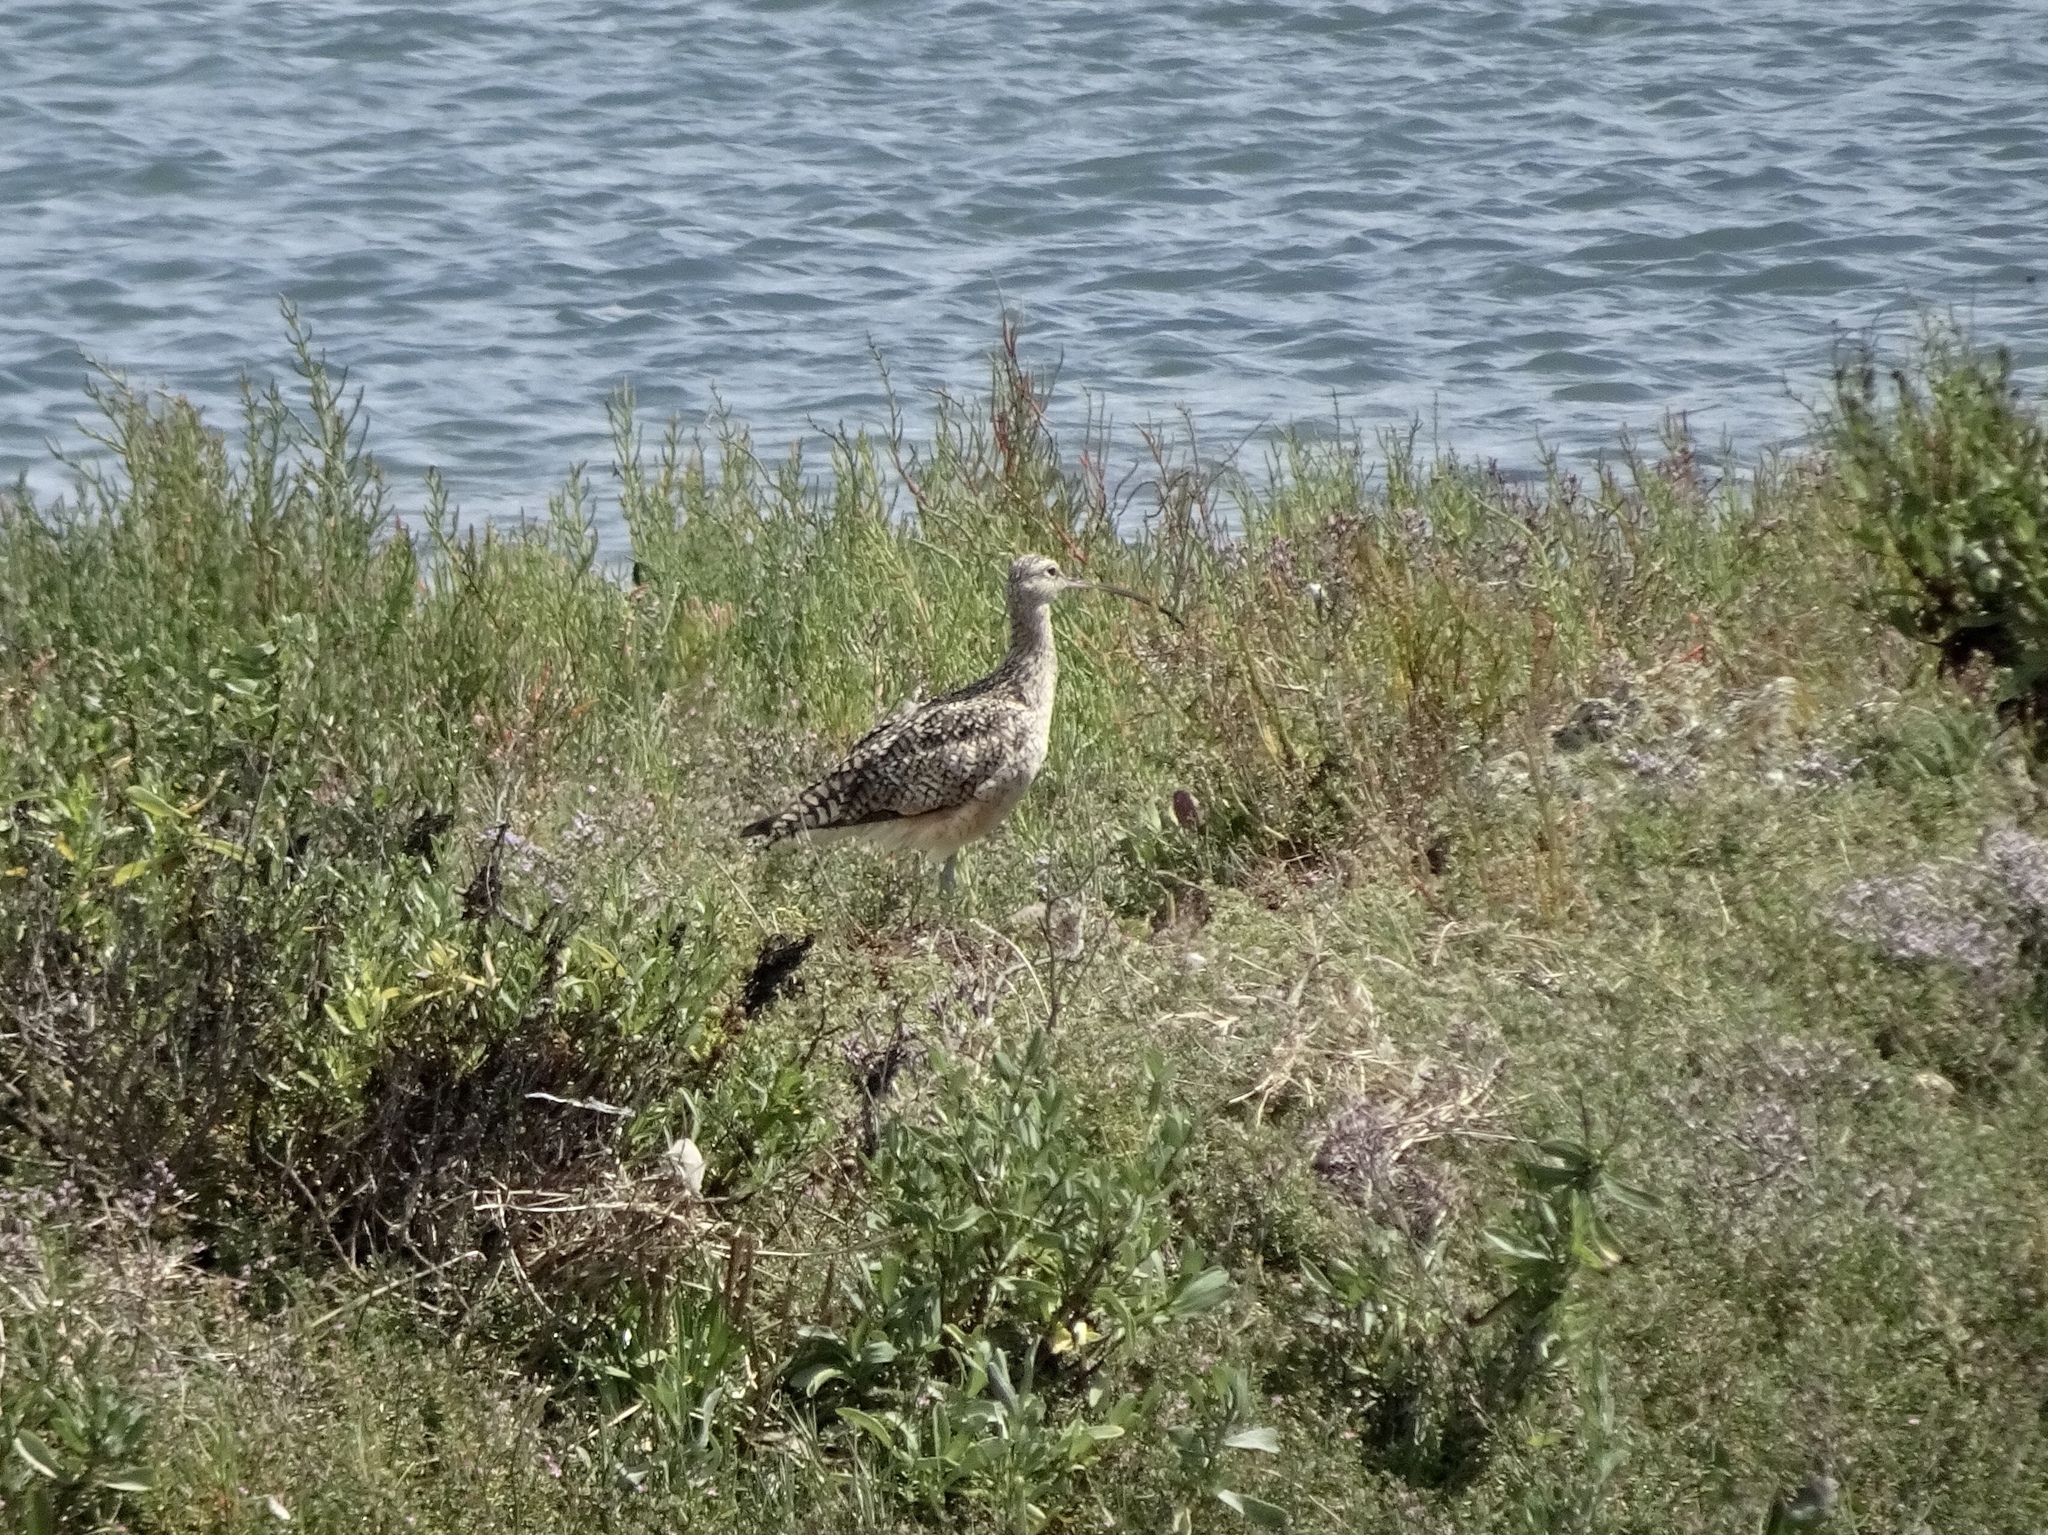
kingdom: Animalia
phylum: Chordata
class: Aves
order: Charadriiformes
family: Scolopacidae
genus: Numenius
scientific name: Numenius americanus
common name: Long-billed curlew
